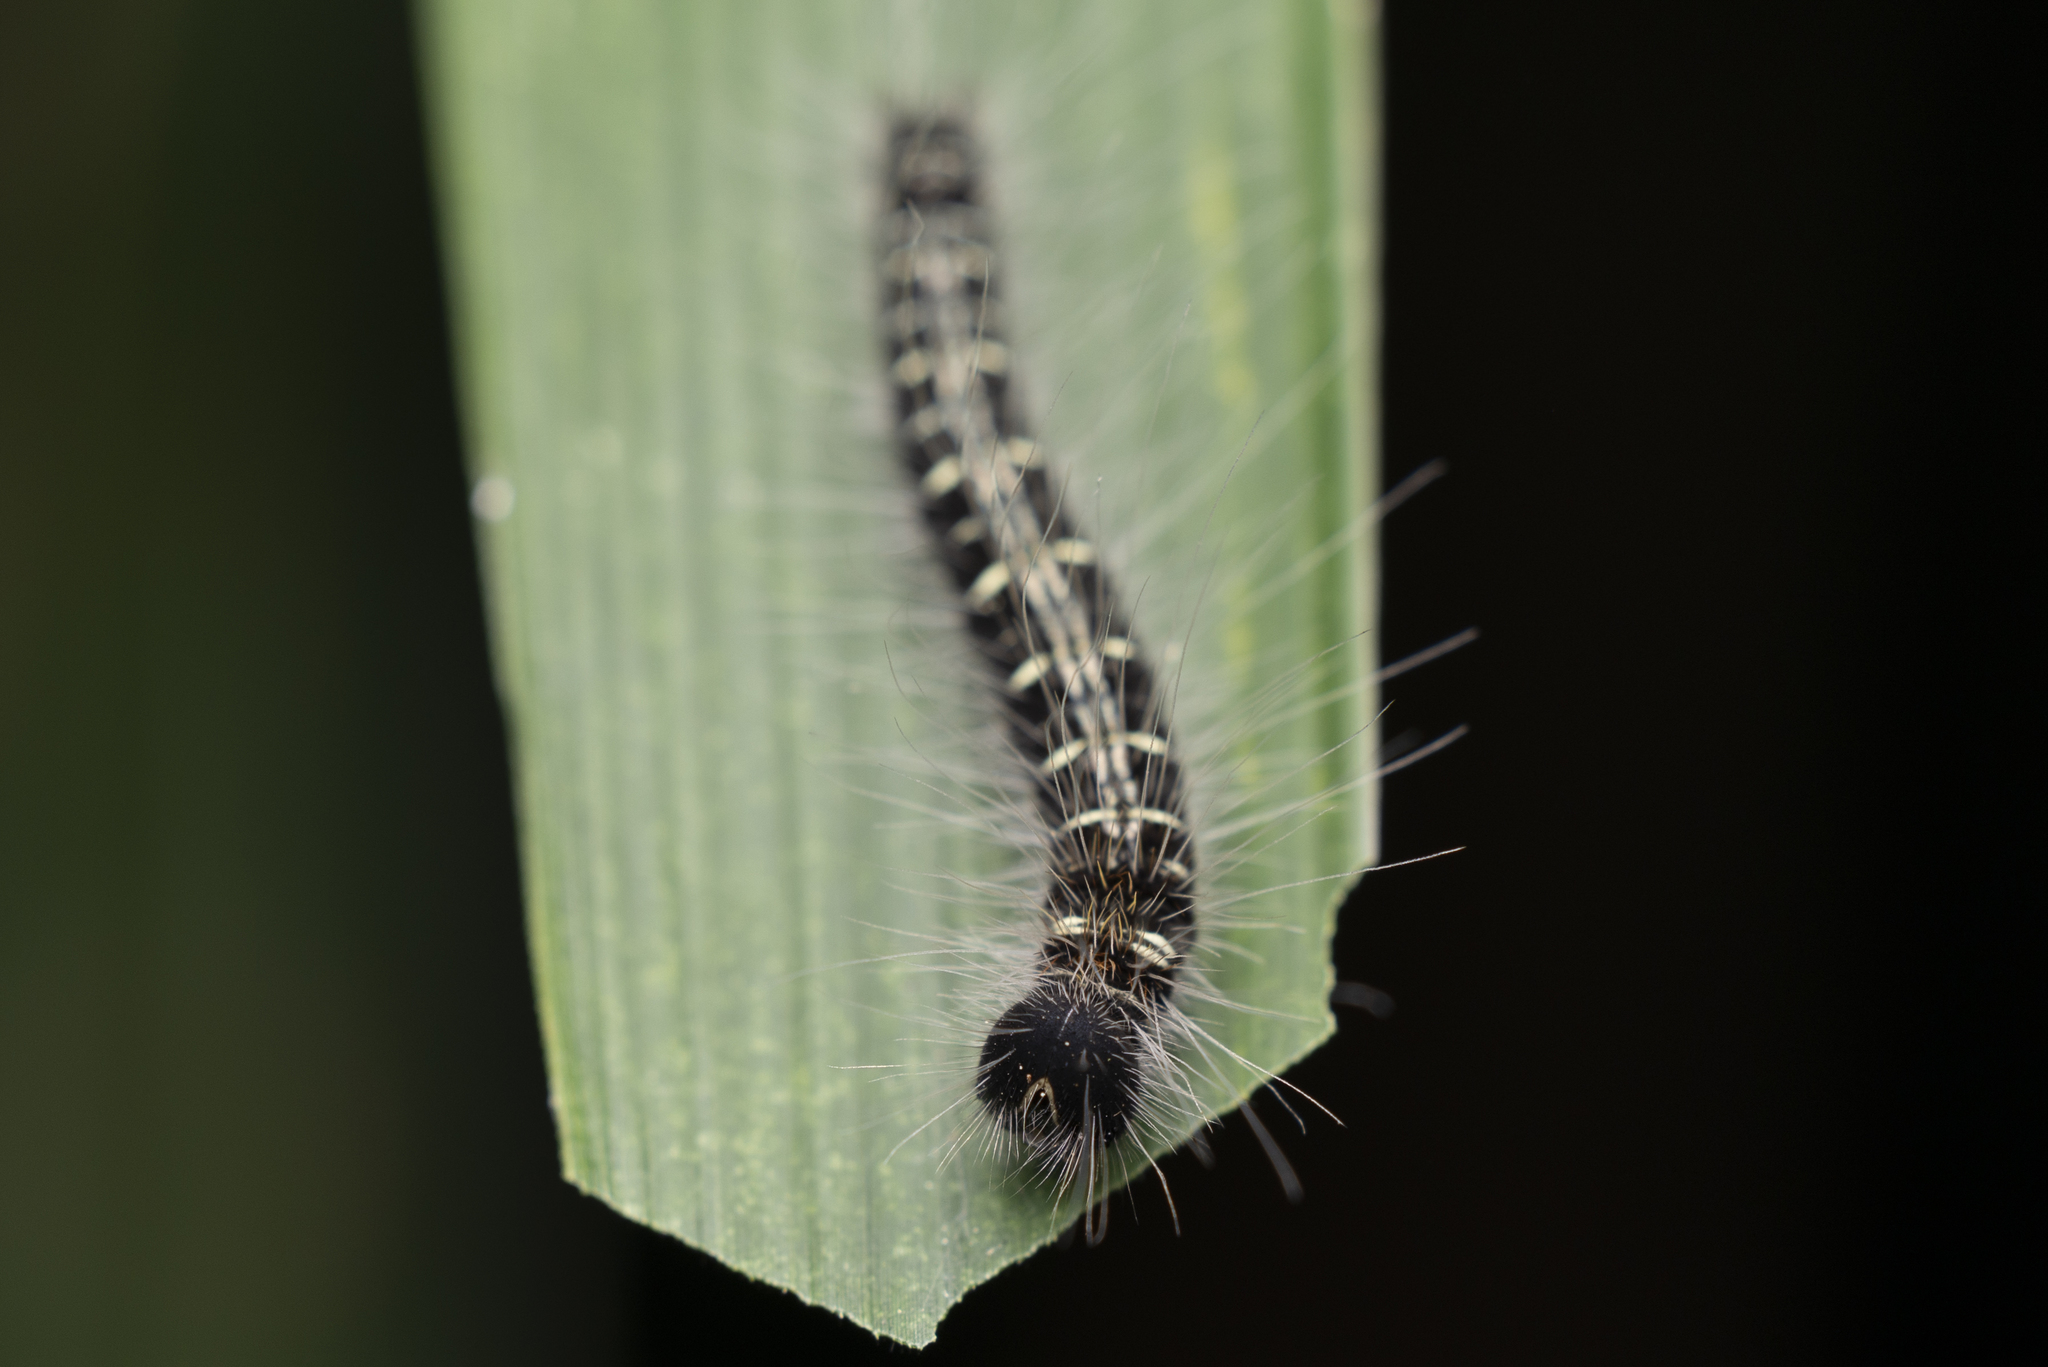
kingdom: Animalia
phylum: Arthropoda
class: Insecta
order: Lepidoptera
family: Nymphalidae
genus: Discophora
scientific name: Discophora sondaica
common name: Common duffer
